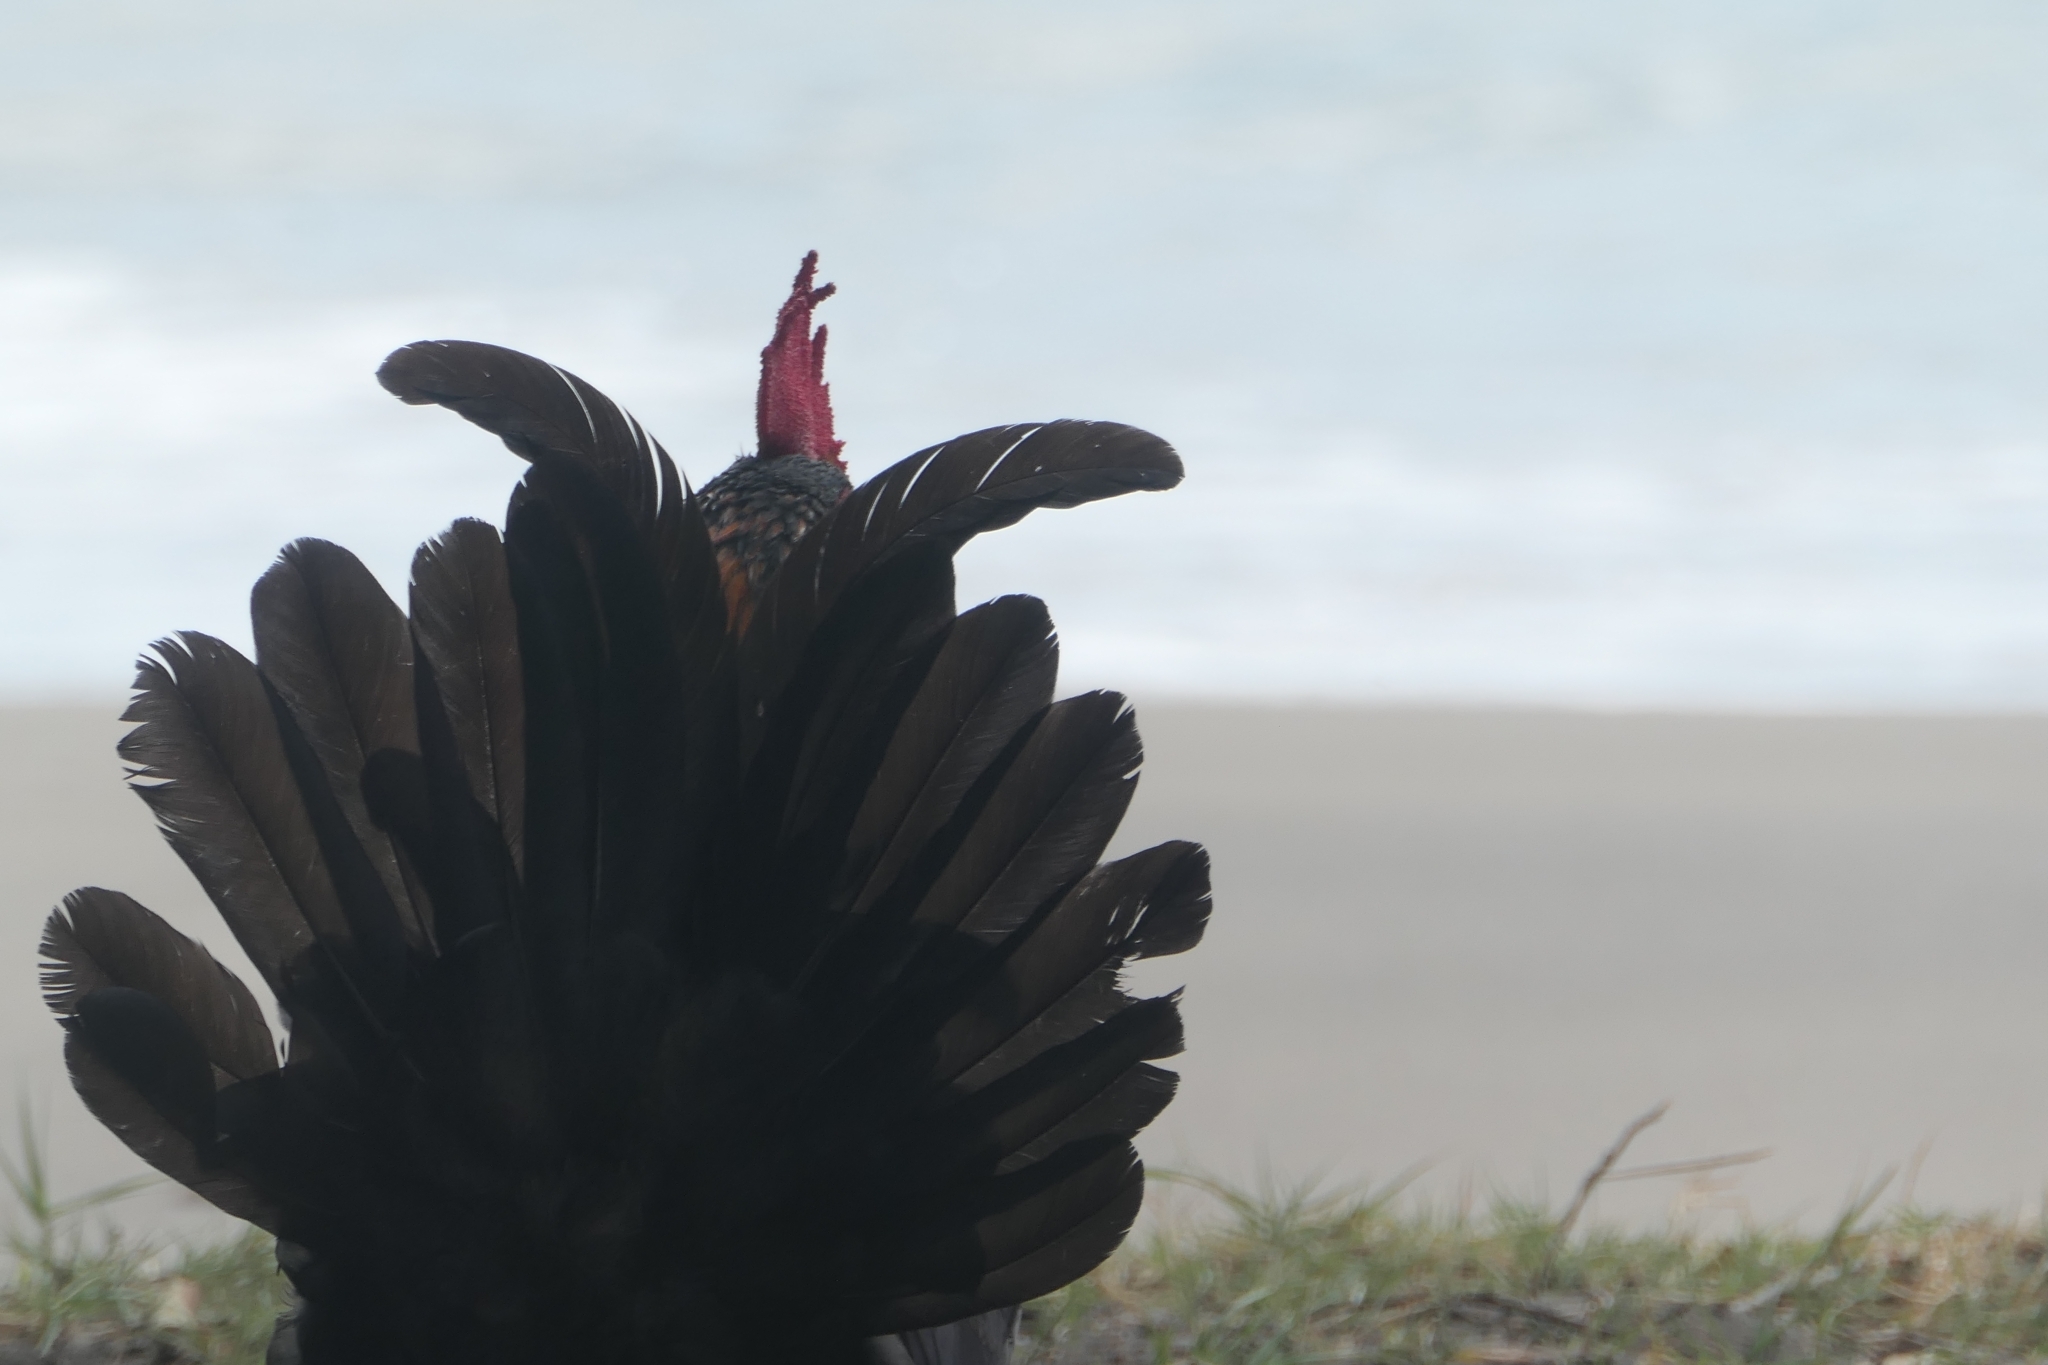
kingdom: Animalia
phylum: Chordata
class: Aves
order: Galliformes
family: Phasianidae
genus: Gallus
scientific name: Gallus gallus
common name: Red junglefowl
